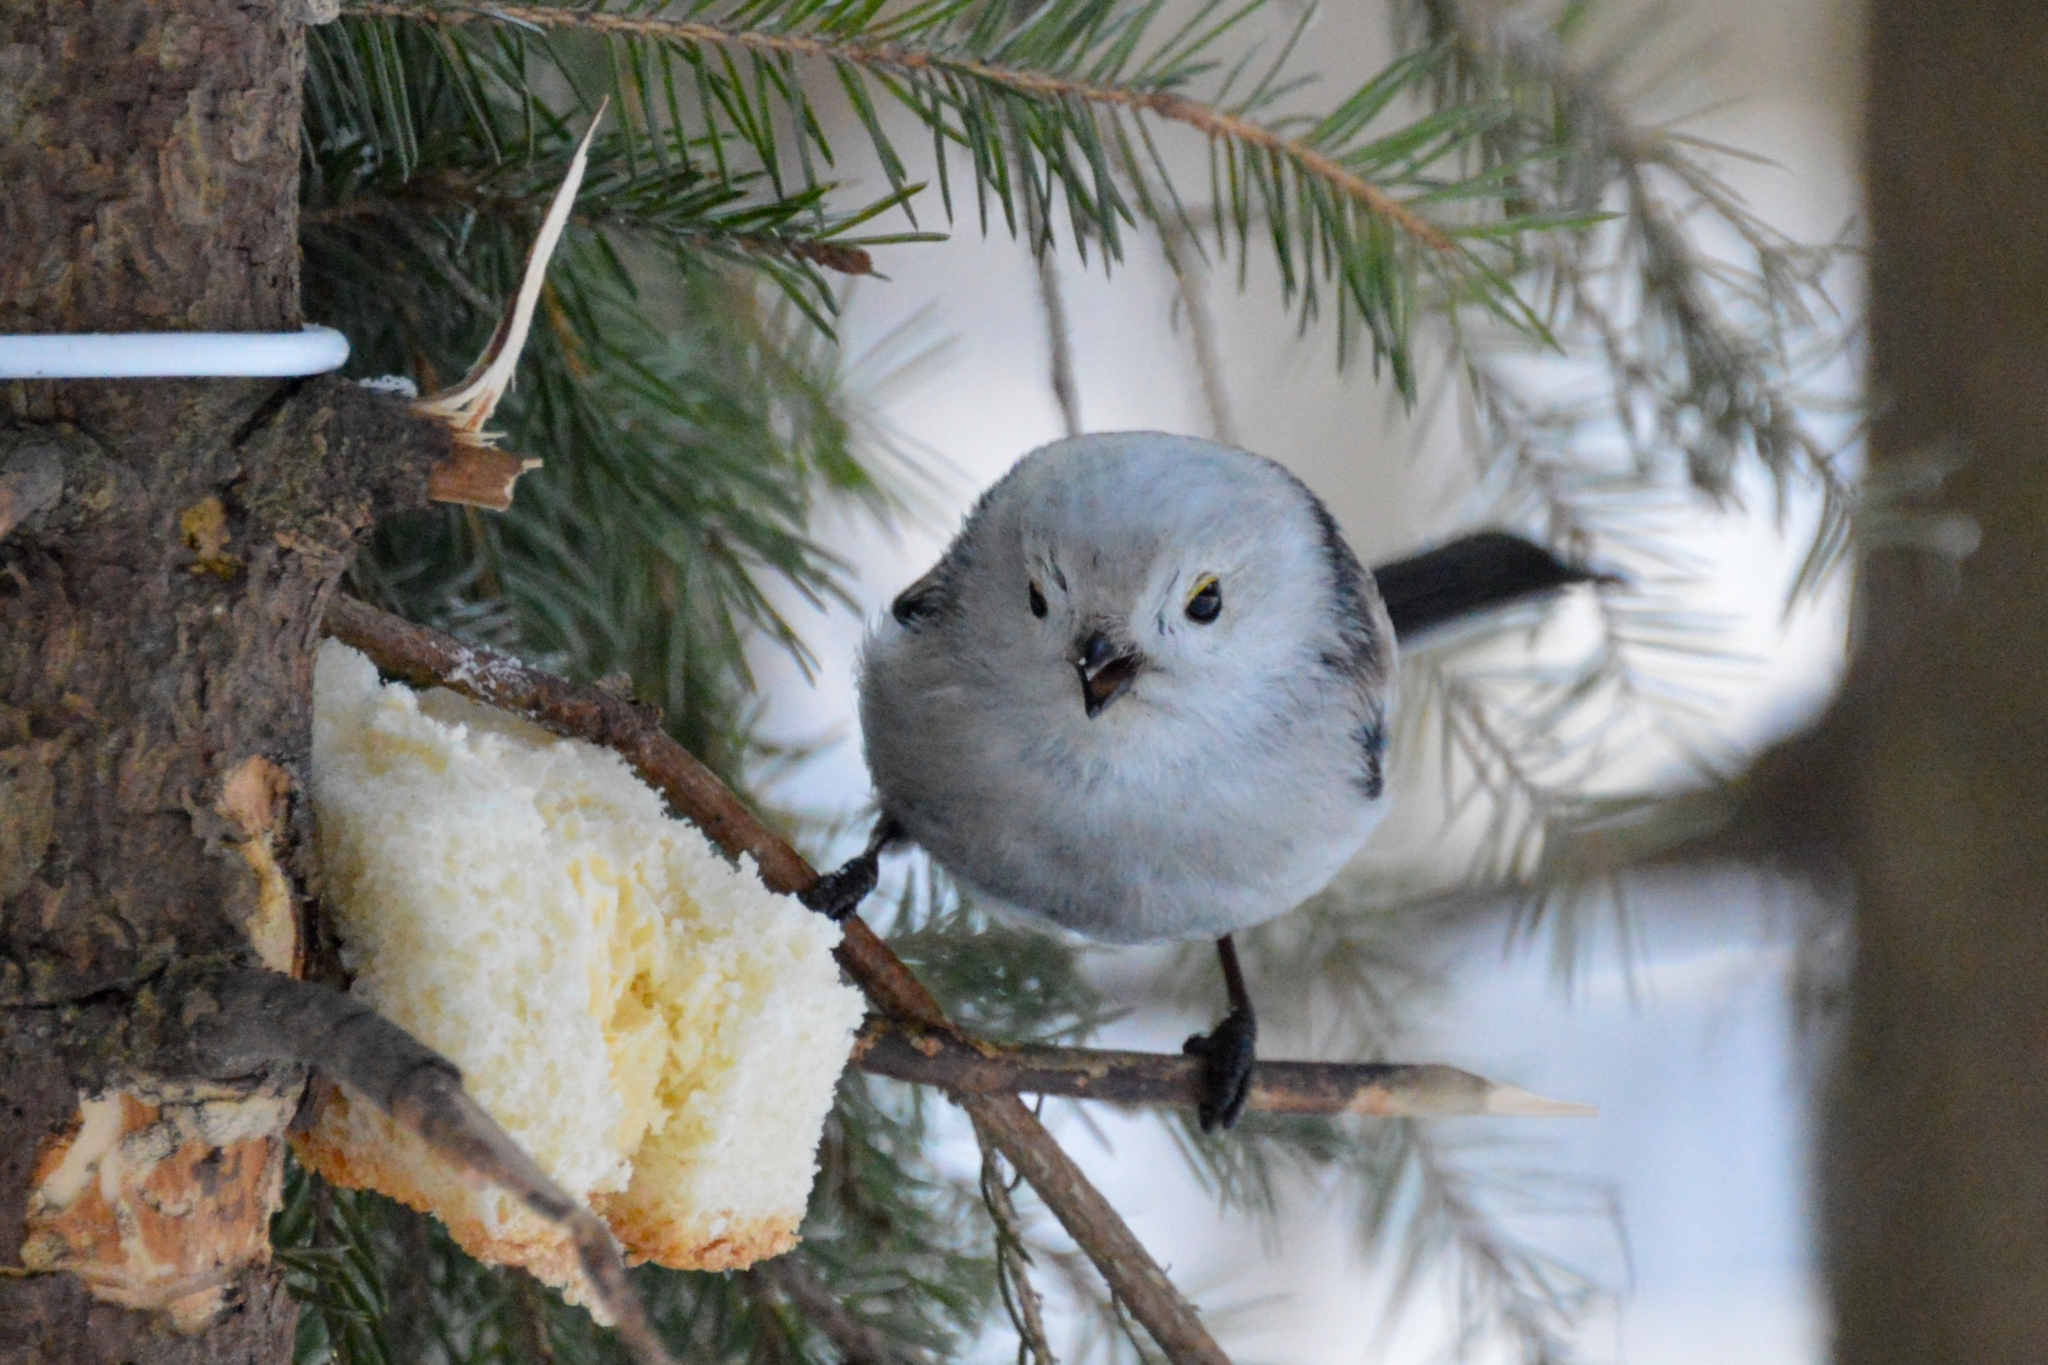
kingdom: Animalia
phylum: Chordata
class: Aves
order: Passeriformes
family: Aegithalidae
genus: Aegithalos
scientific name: Aegithalos caudatus
